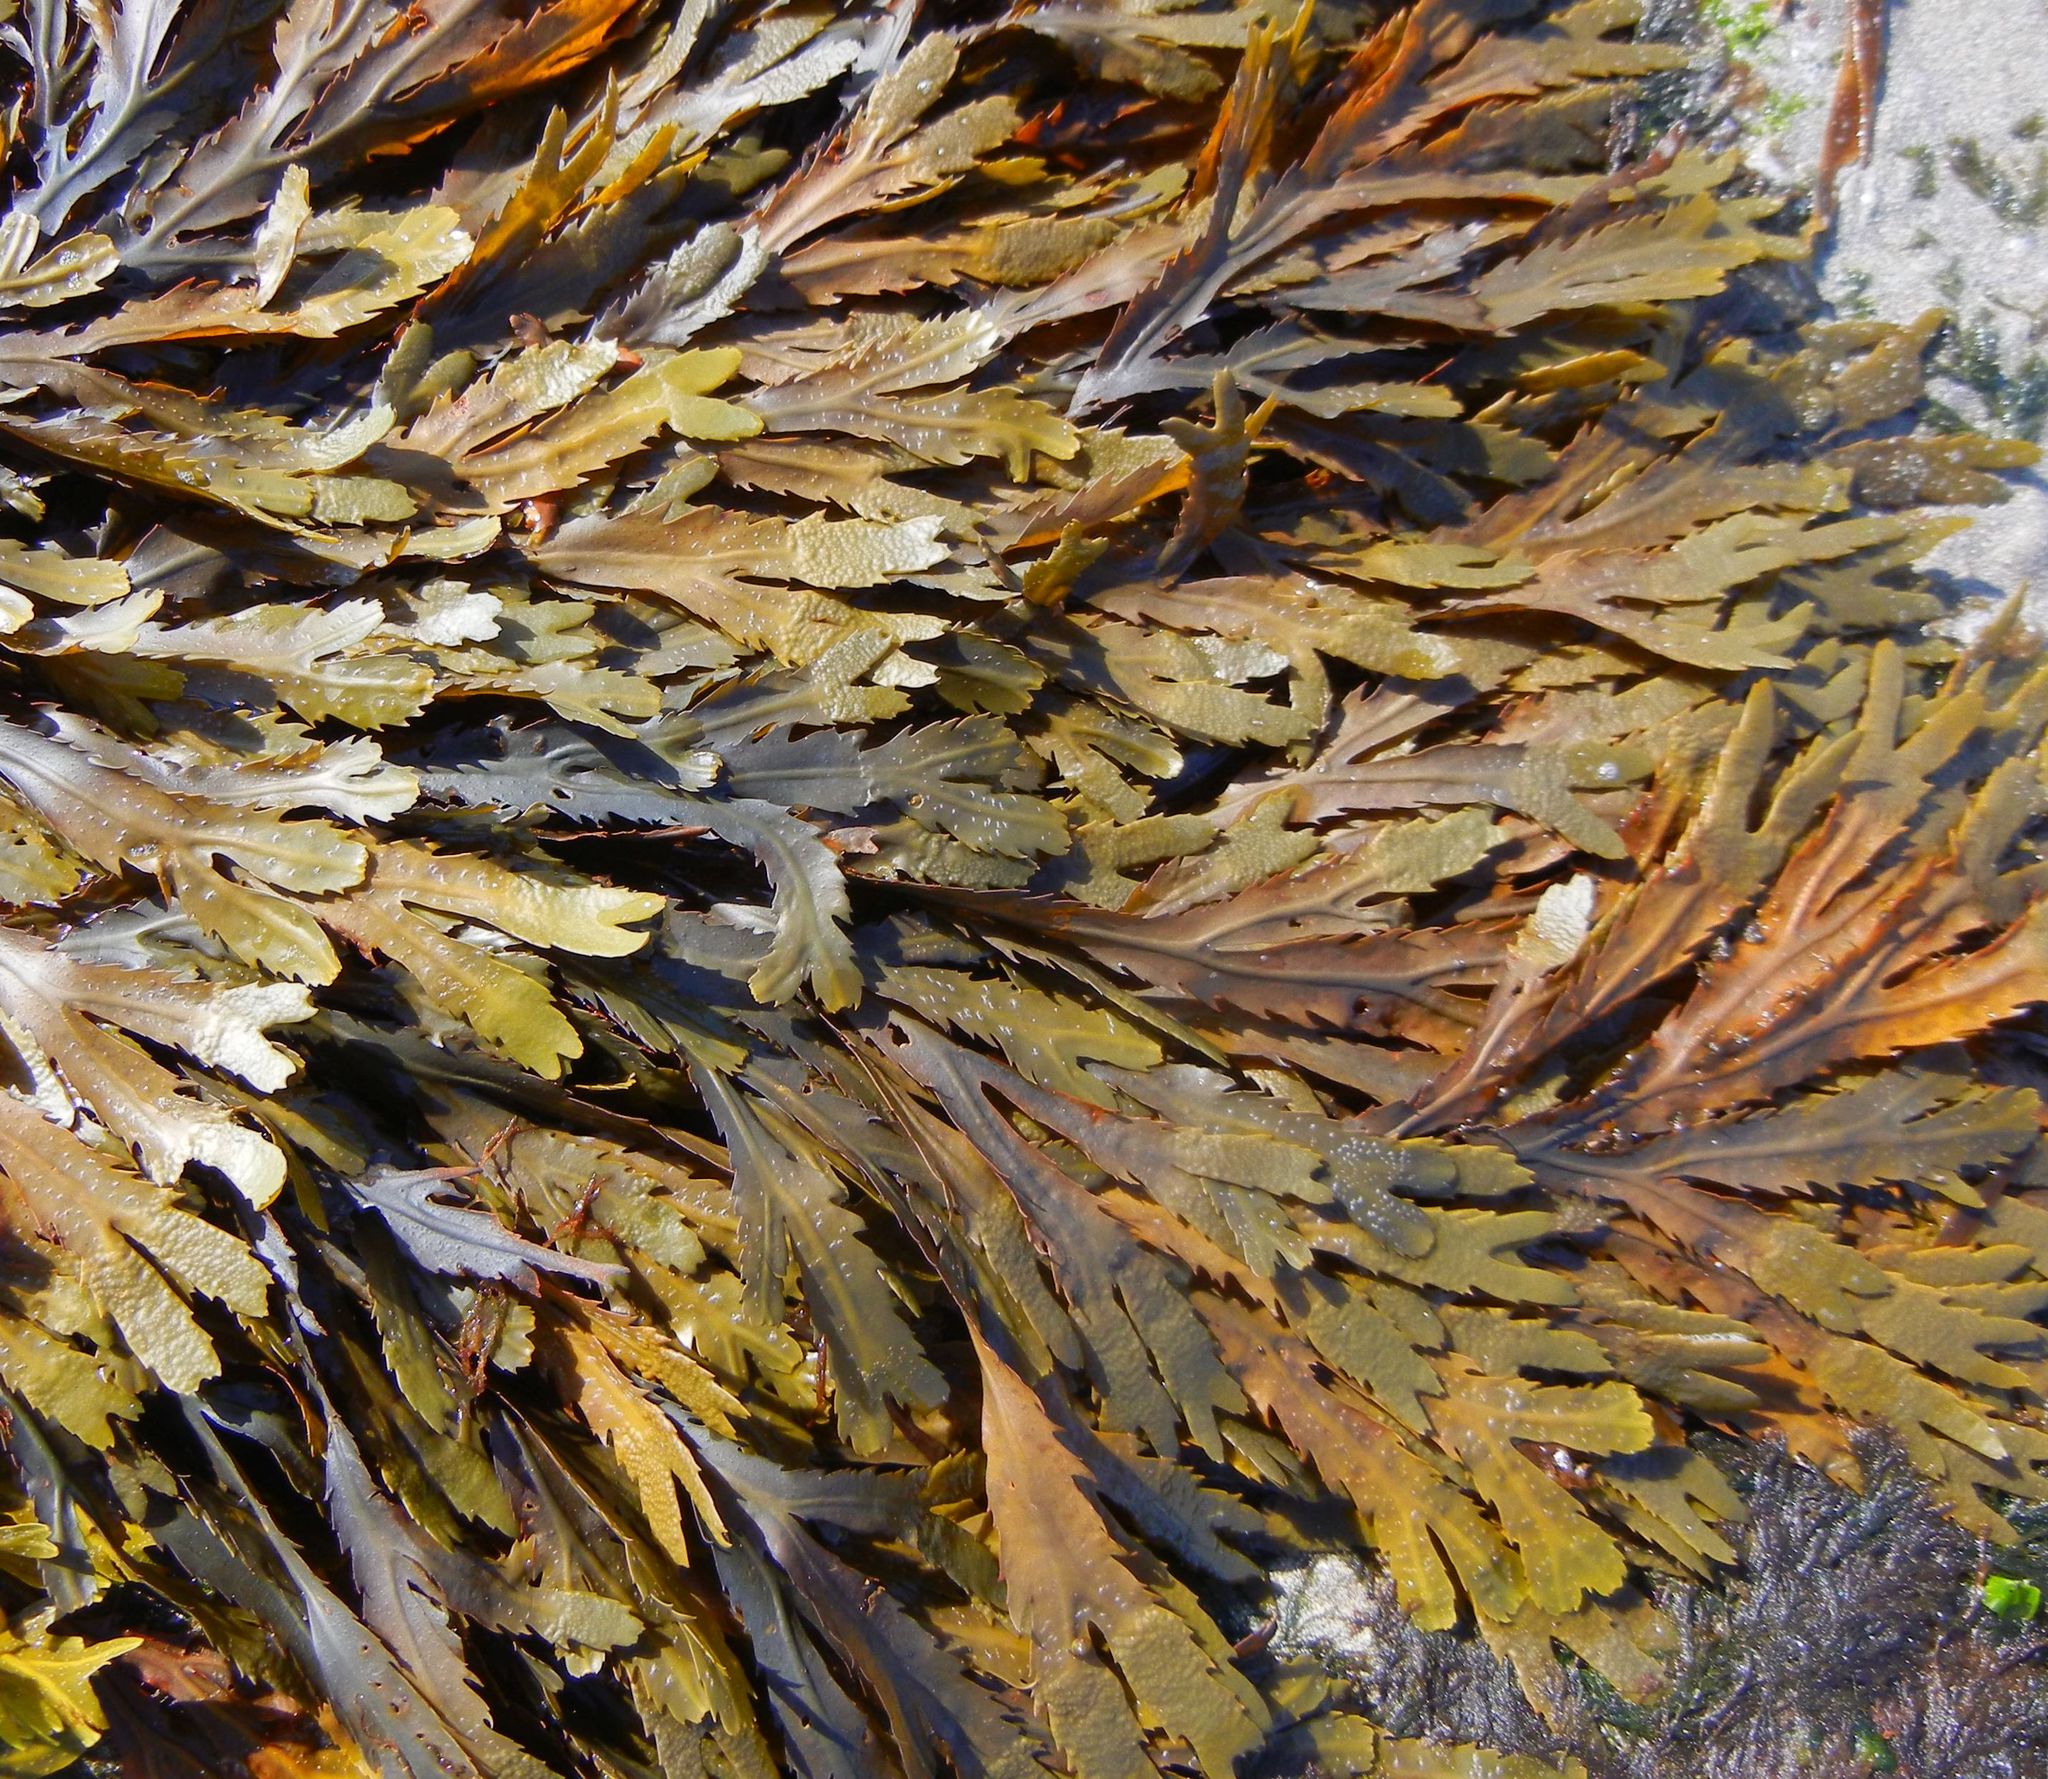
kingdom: Chromista
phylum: Ochrophyta
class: Phaeophyceae
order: Fucales
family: Fucaceae
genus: Fucus
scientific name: Fucus serratus
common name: Toothed wrack
